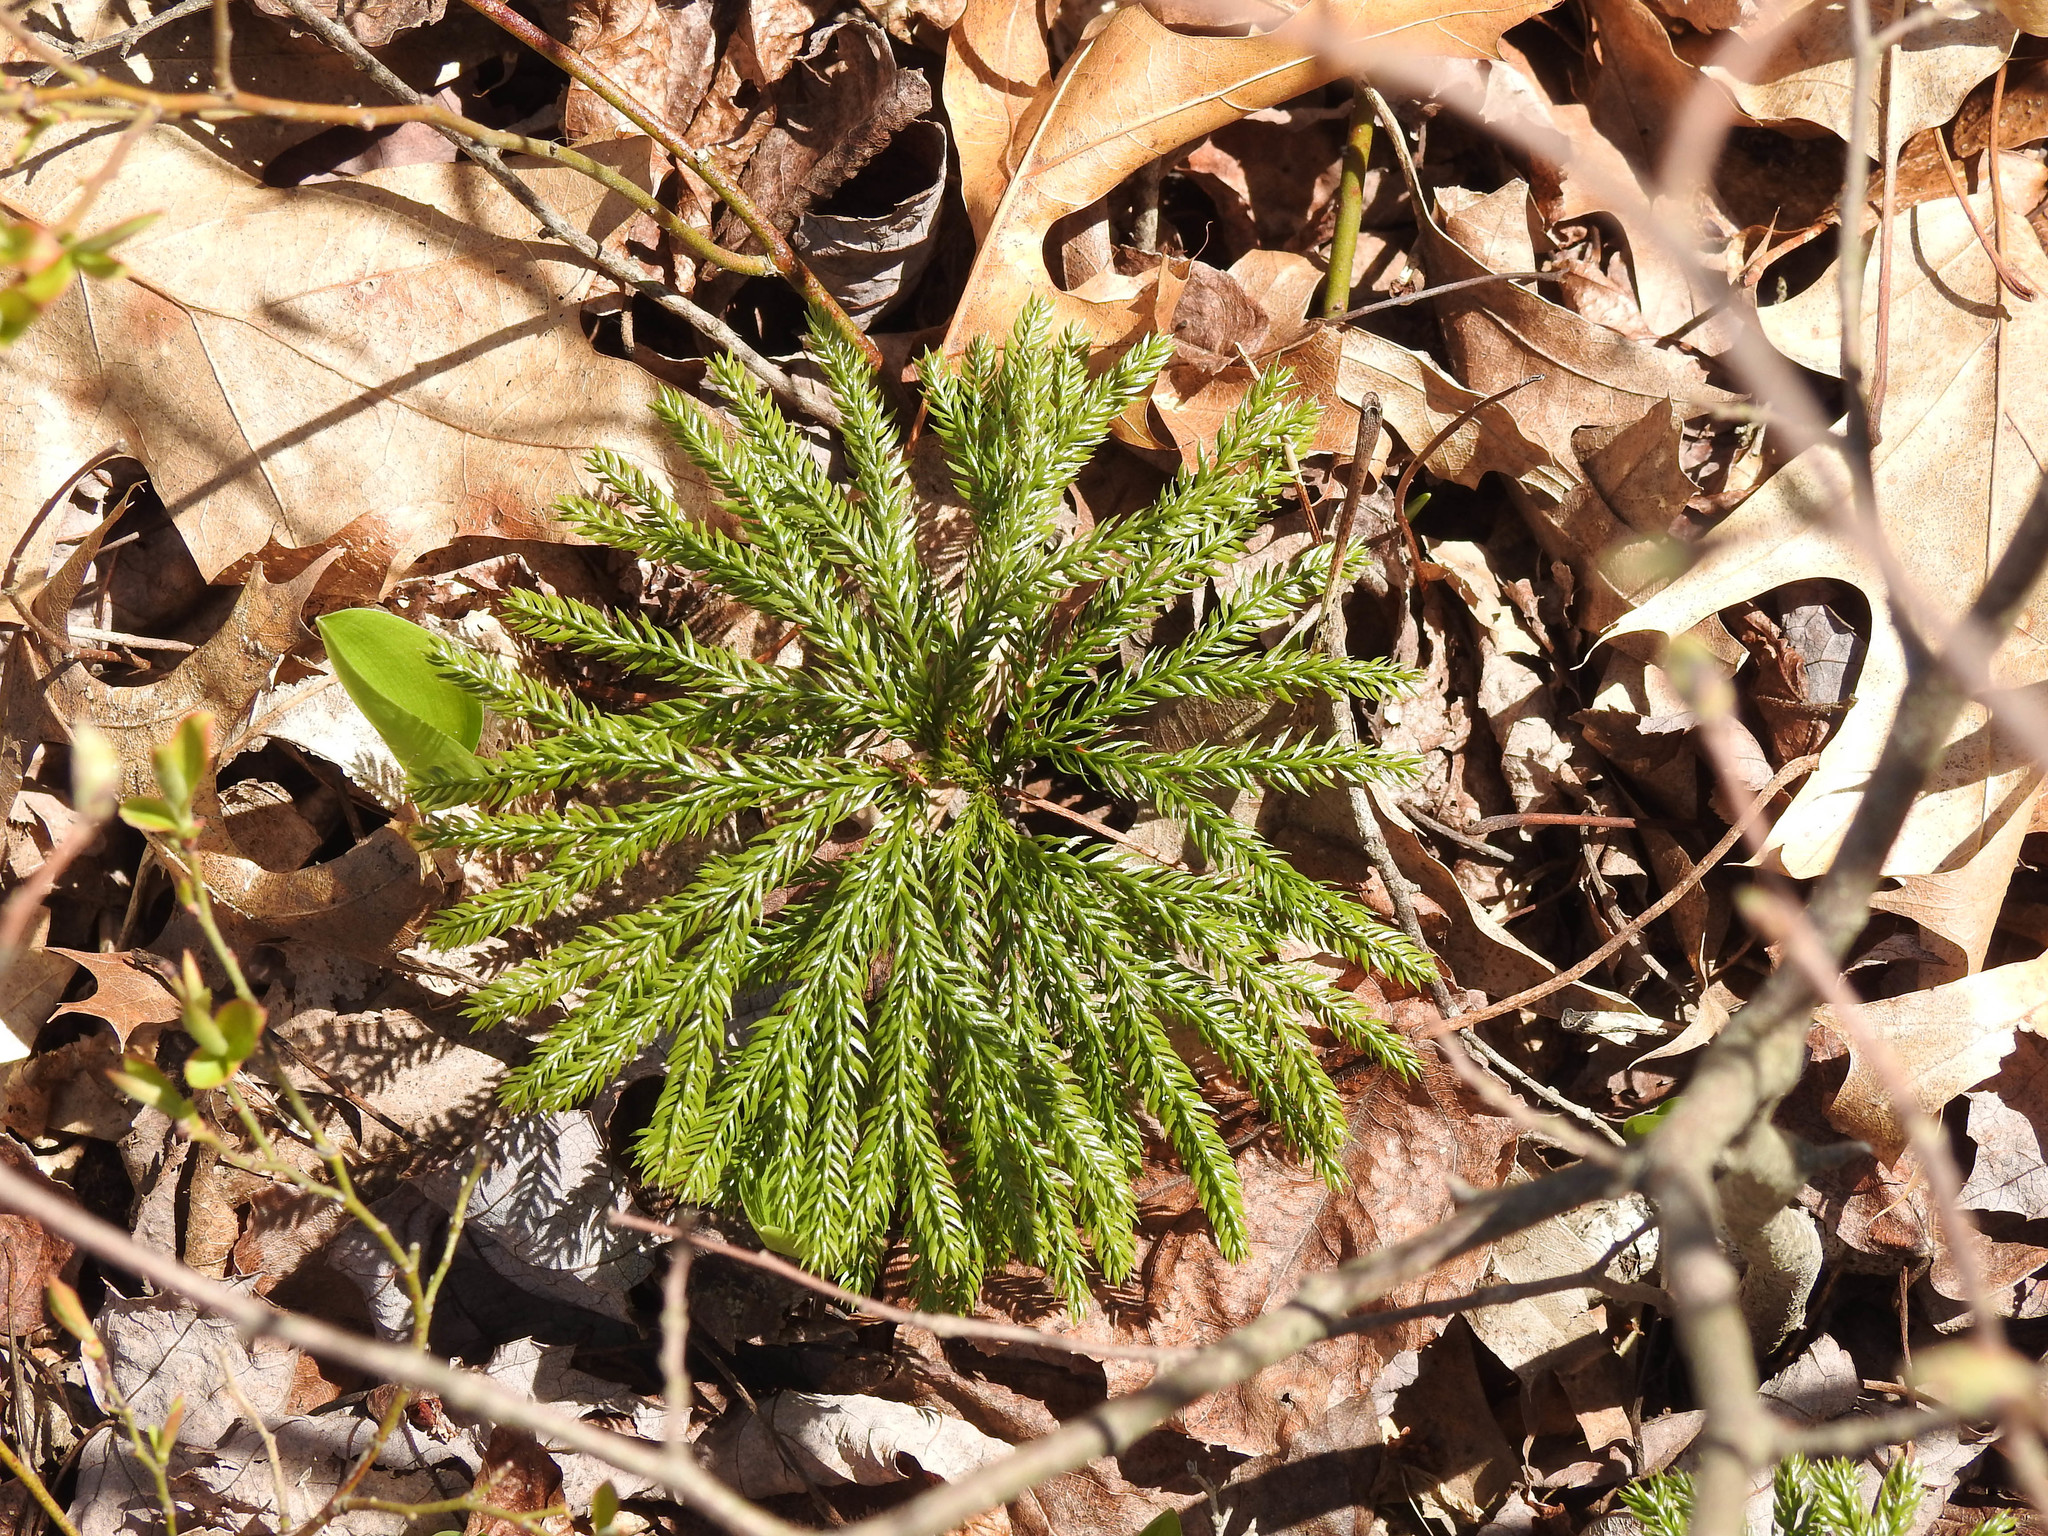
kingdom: Plantae
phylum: Tracheophyta
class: Lycopodiopsida
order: Lycopodiales
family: Lycopodiaceae
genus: Dendrolycopodium
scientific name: Dendrolycopodium obscurum
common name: Common ground-pine
